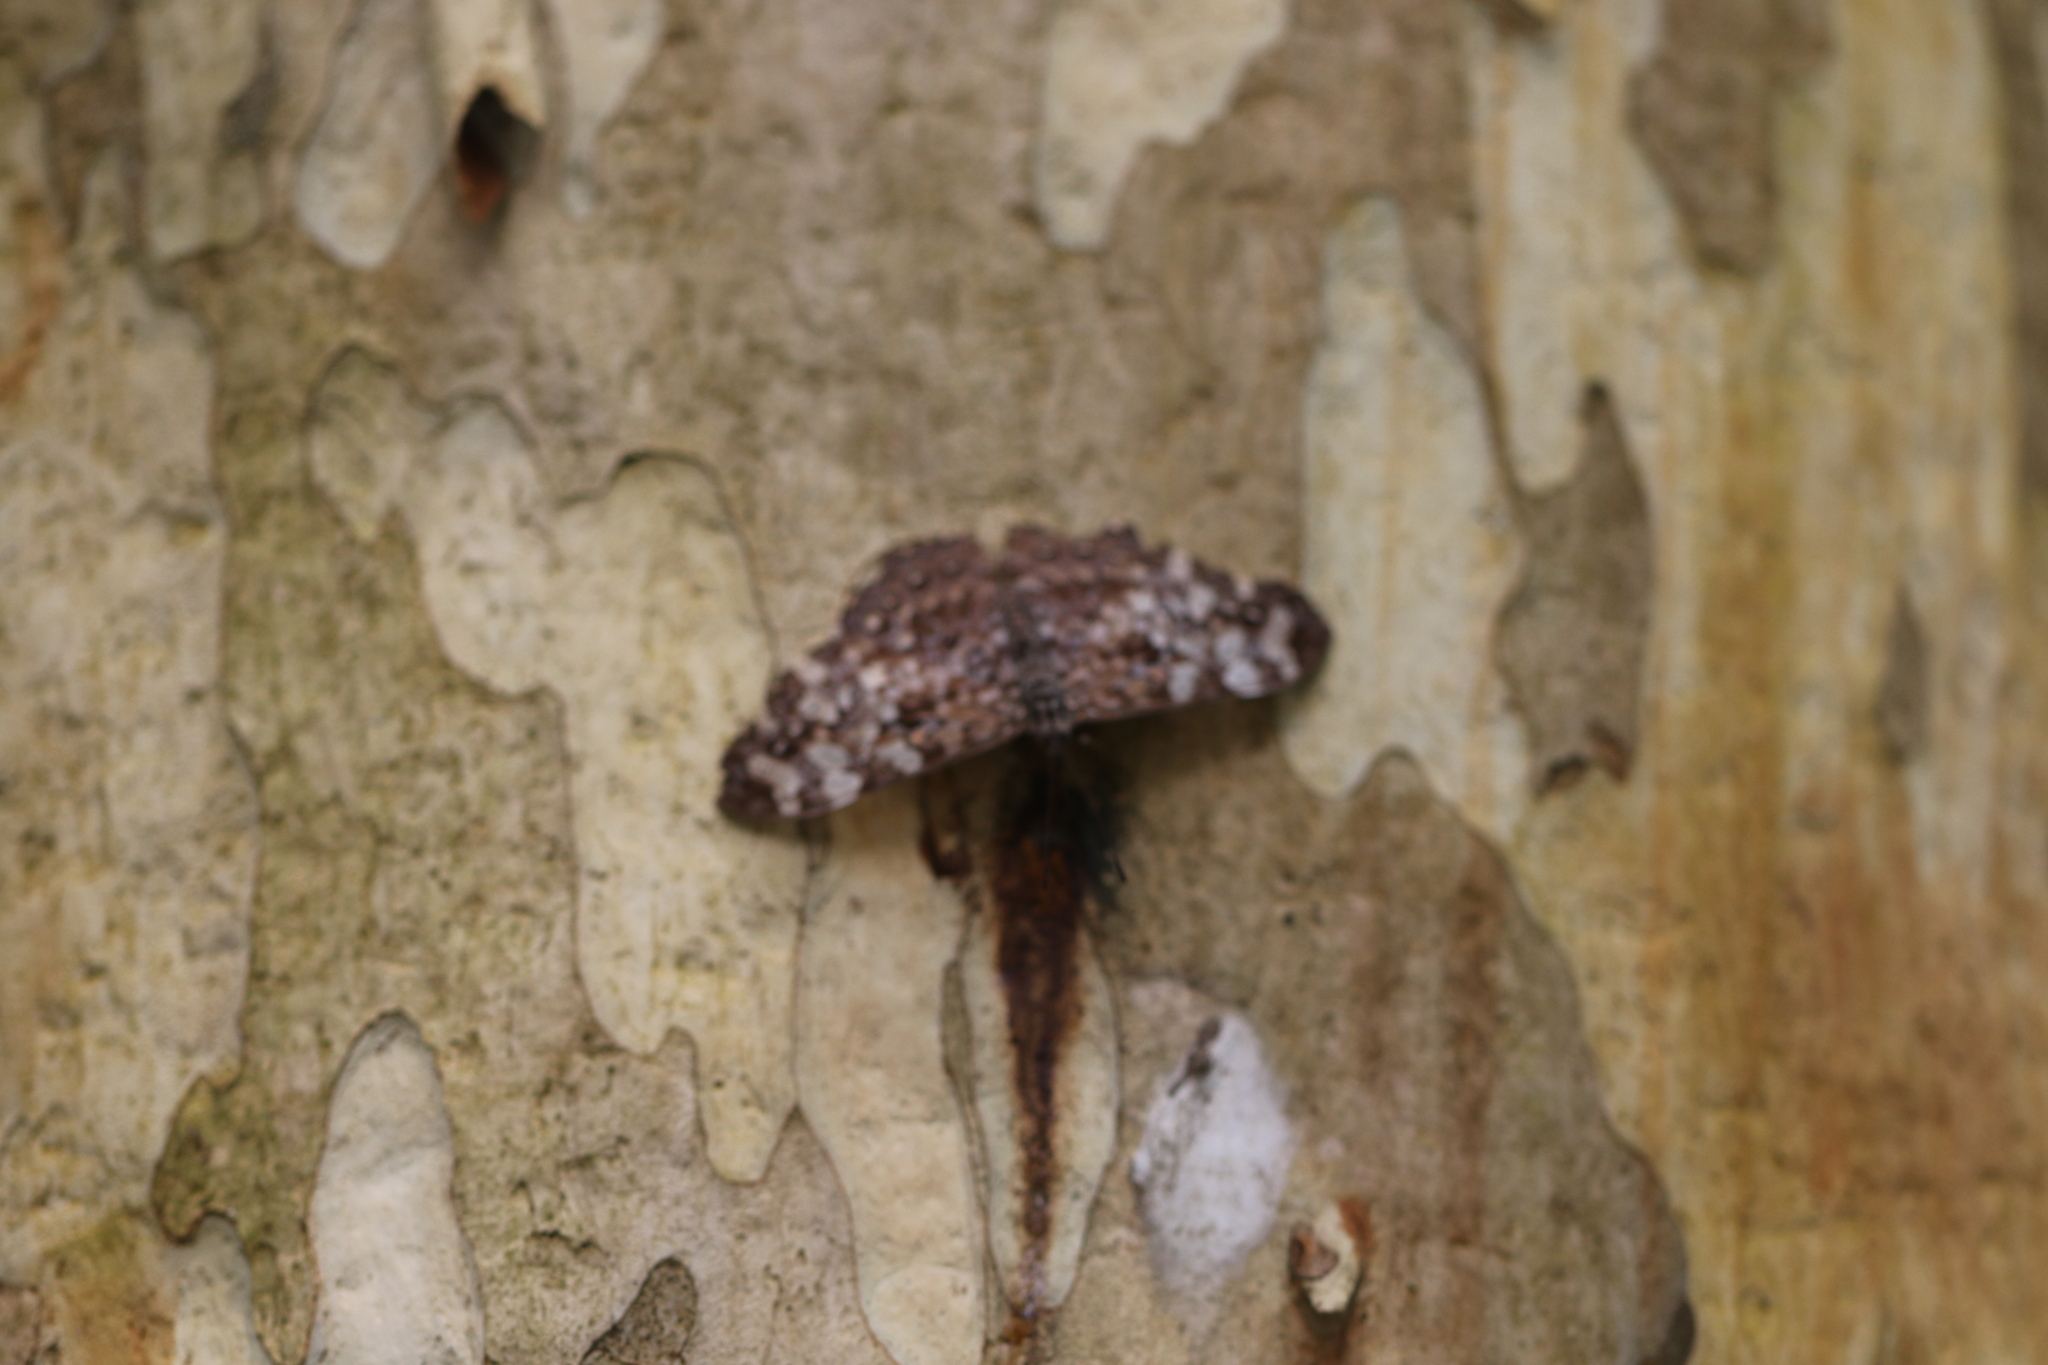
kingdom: Animalia
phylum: Arthropoda
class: Insecta
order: Lepidoptera
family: Nymphalidae
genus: Hamadryas
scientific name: Hamadryas epinome
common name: Epinome cracker
